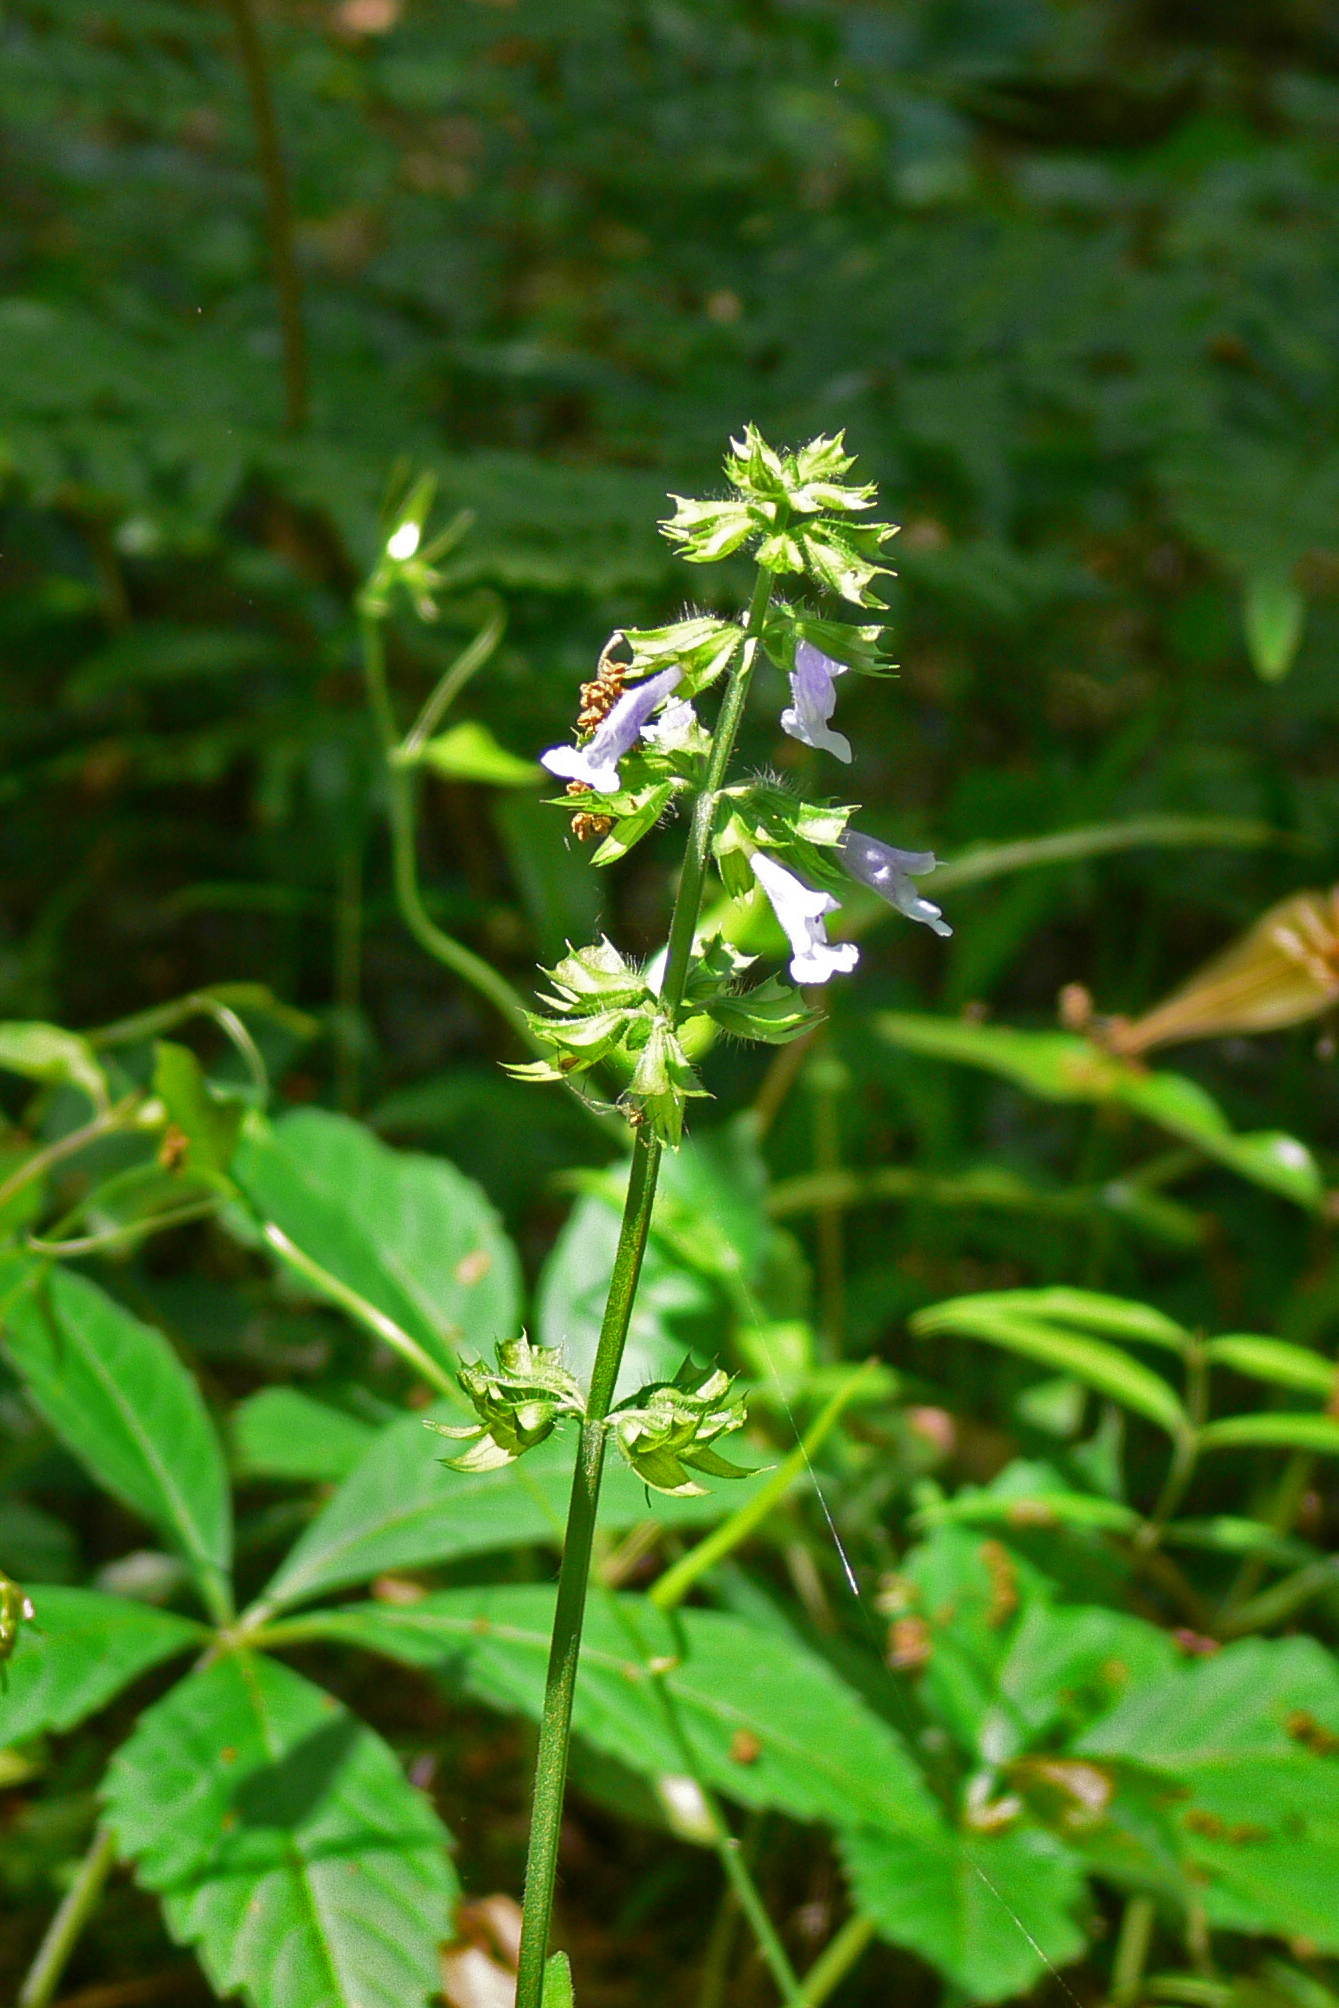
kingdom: Plantae
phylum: Tracheophyta
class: Magnoliopsida
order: Lamiales
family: Lamiaceae
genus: Salvia
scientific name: Salvia lyrata
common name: Cancerweed
